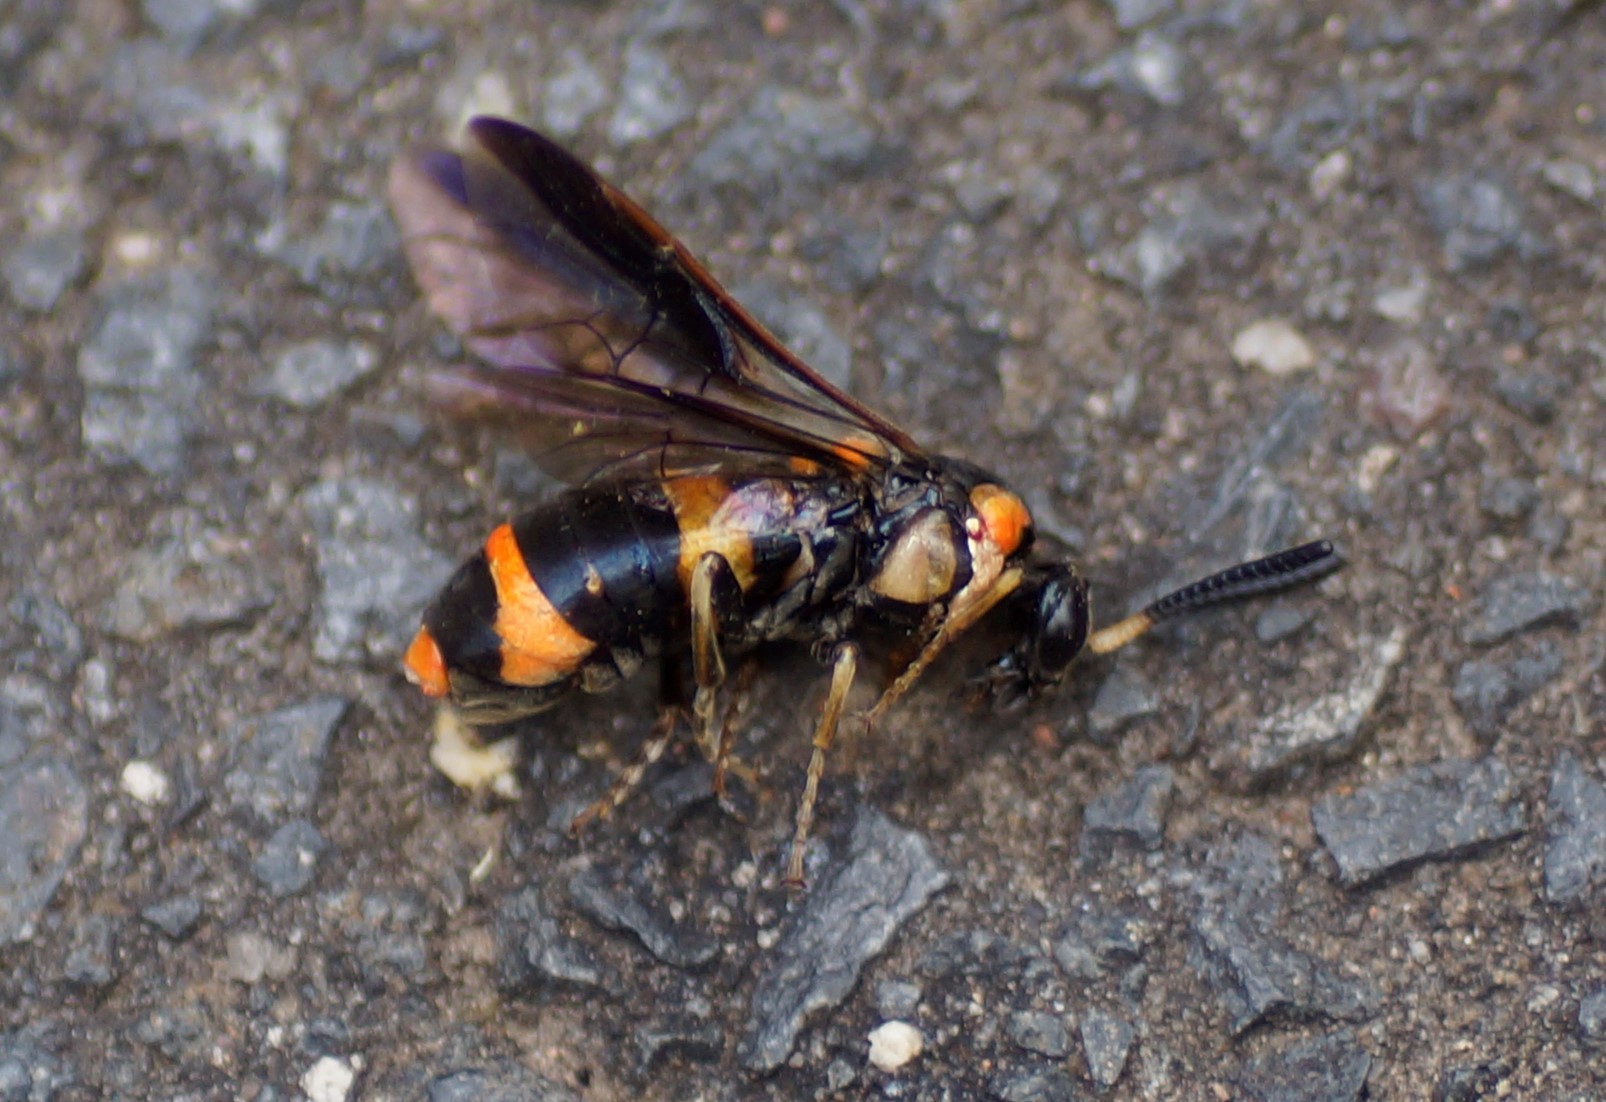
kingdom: Animalia
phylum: Arthropoda
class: Insecta
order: Hymenoptera
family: Pergidae
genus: Pterygophorus
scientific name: Pterygophorus
